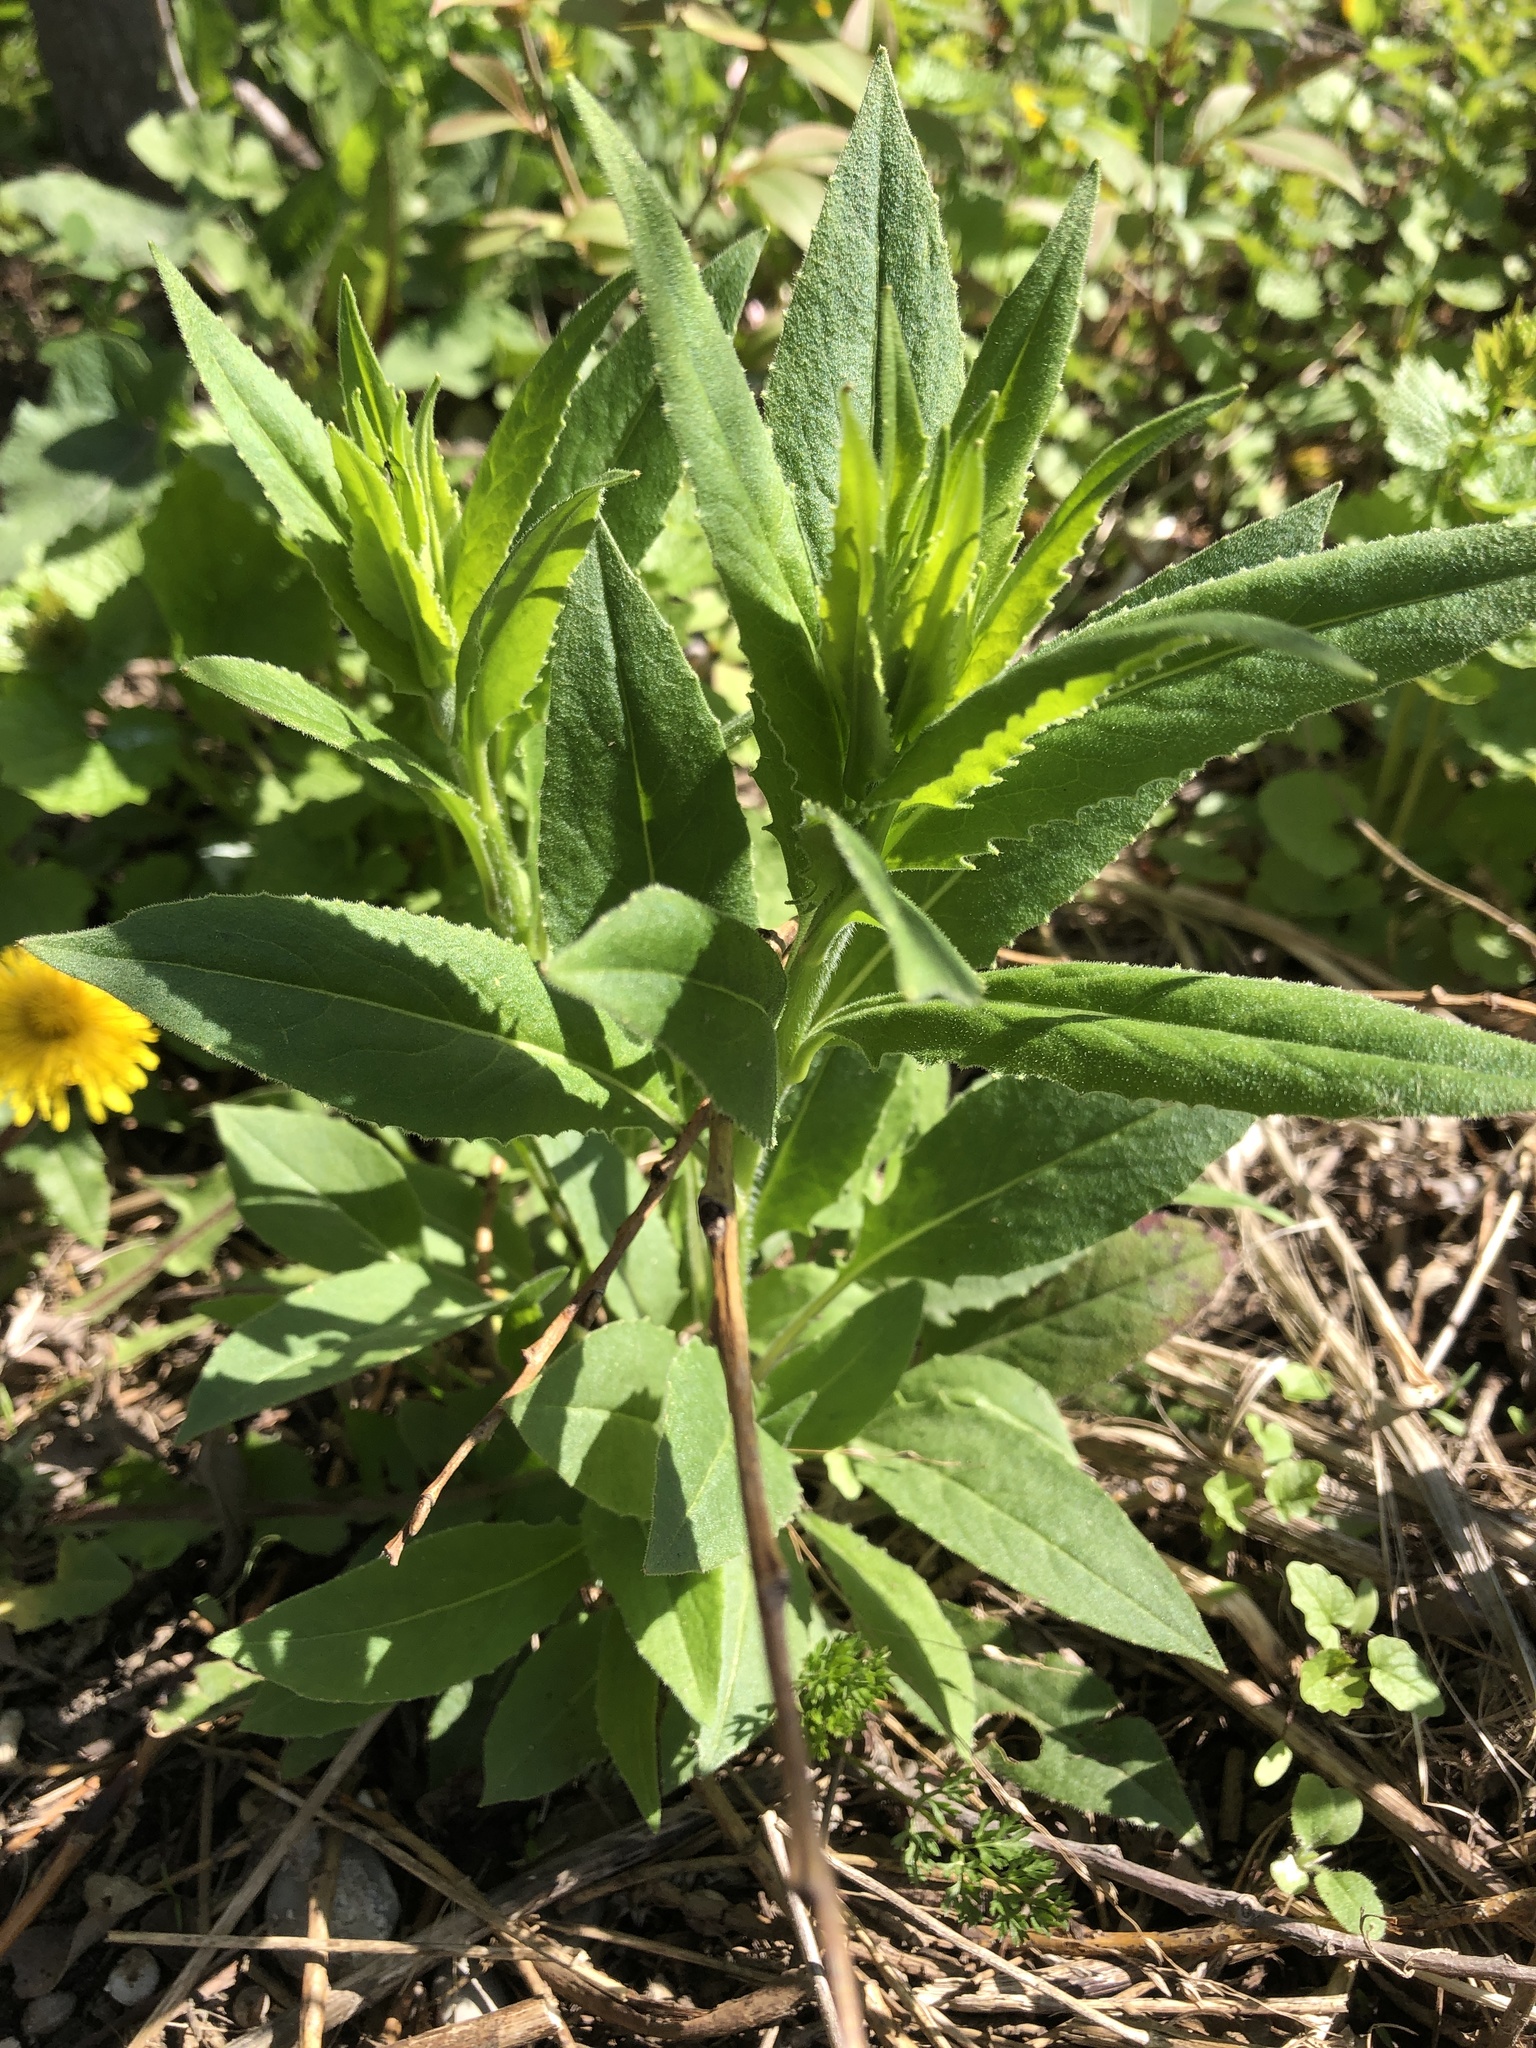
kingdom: Plantae
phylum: Tracheophyta
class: Magnoliopsida
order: Brassicales
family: Brassicaceae
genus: Hesperis
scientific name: Hesperis matronalis
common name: Dame's-violet
